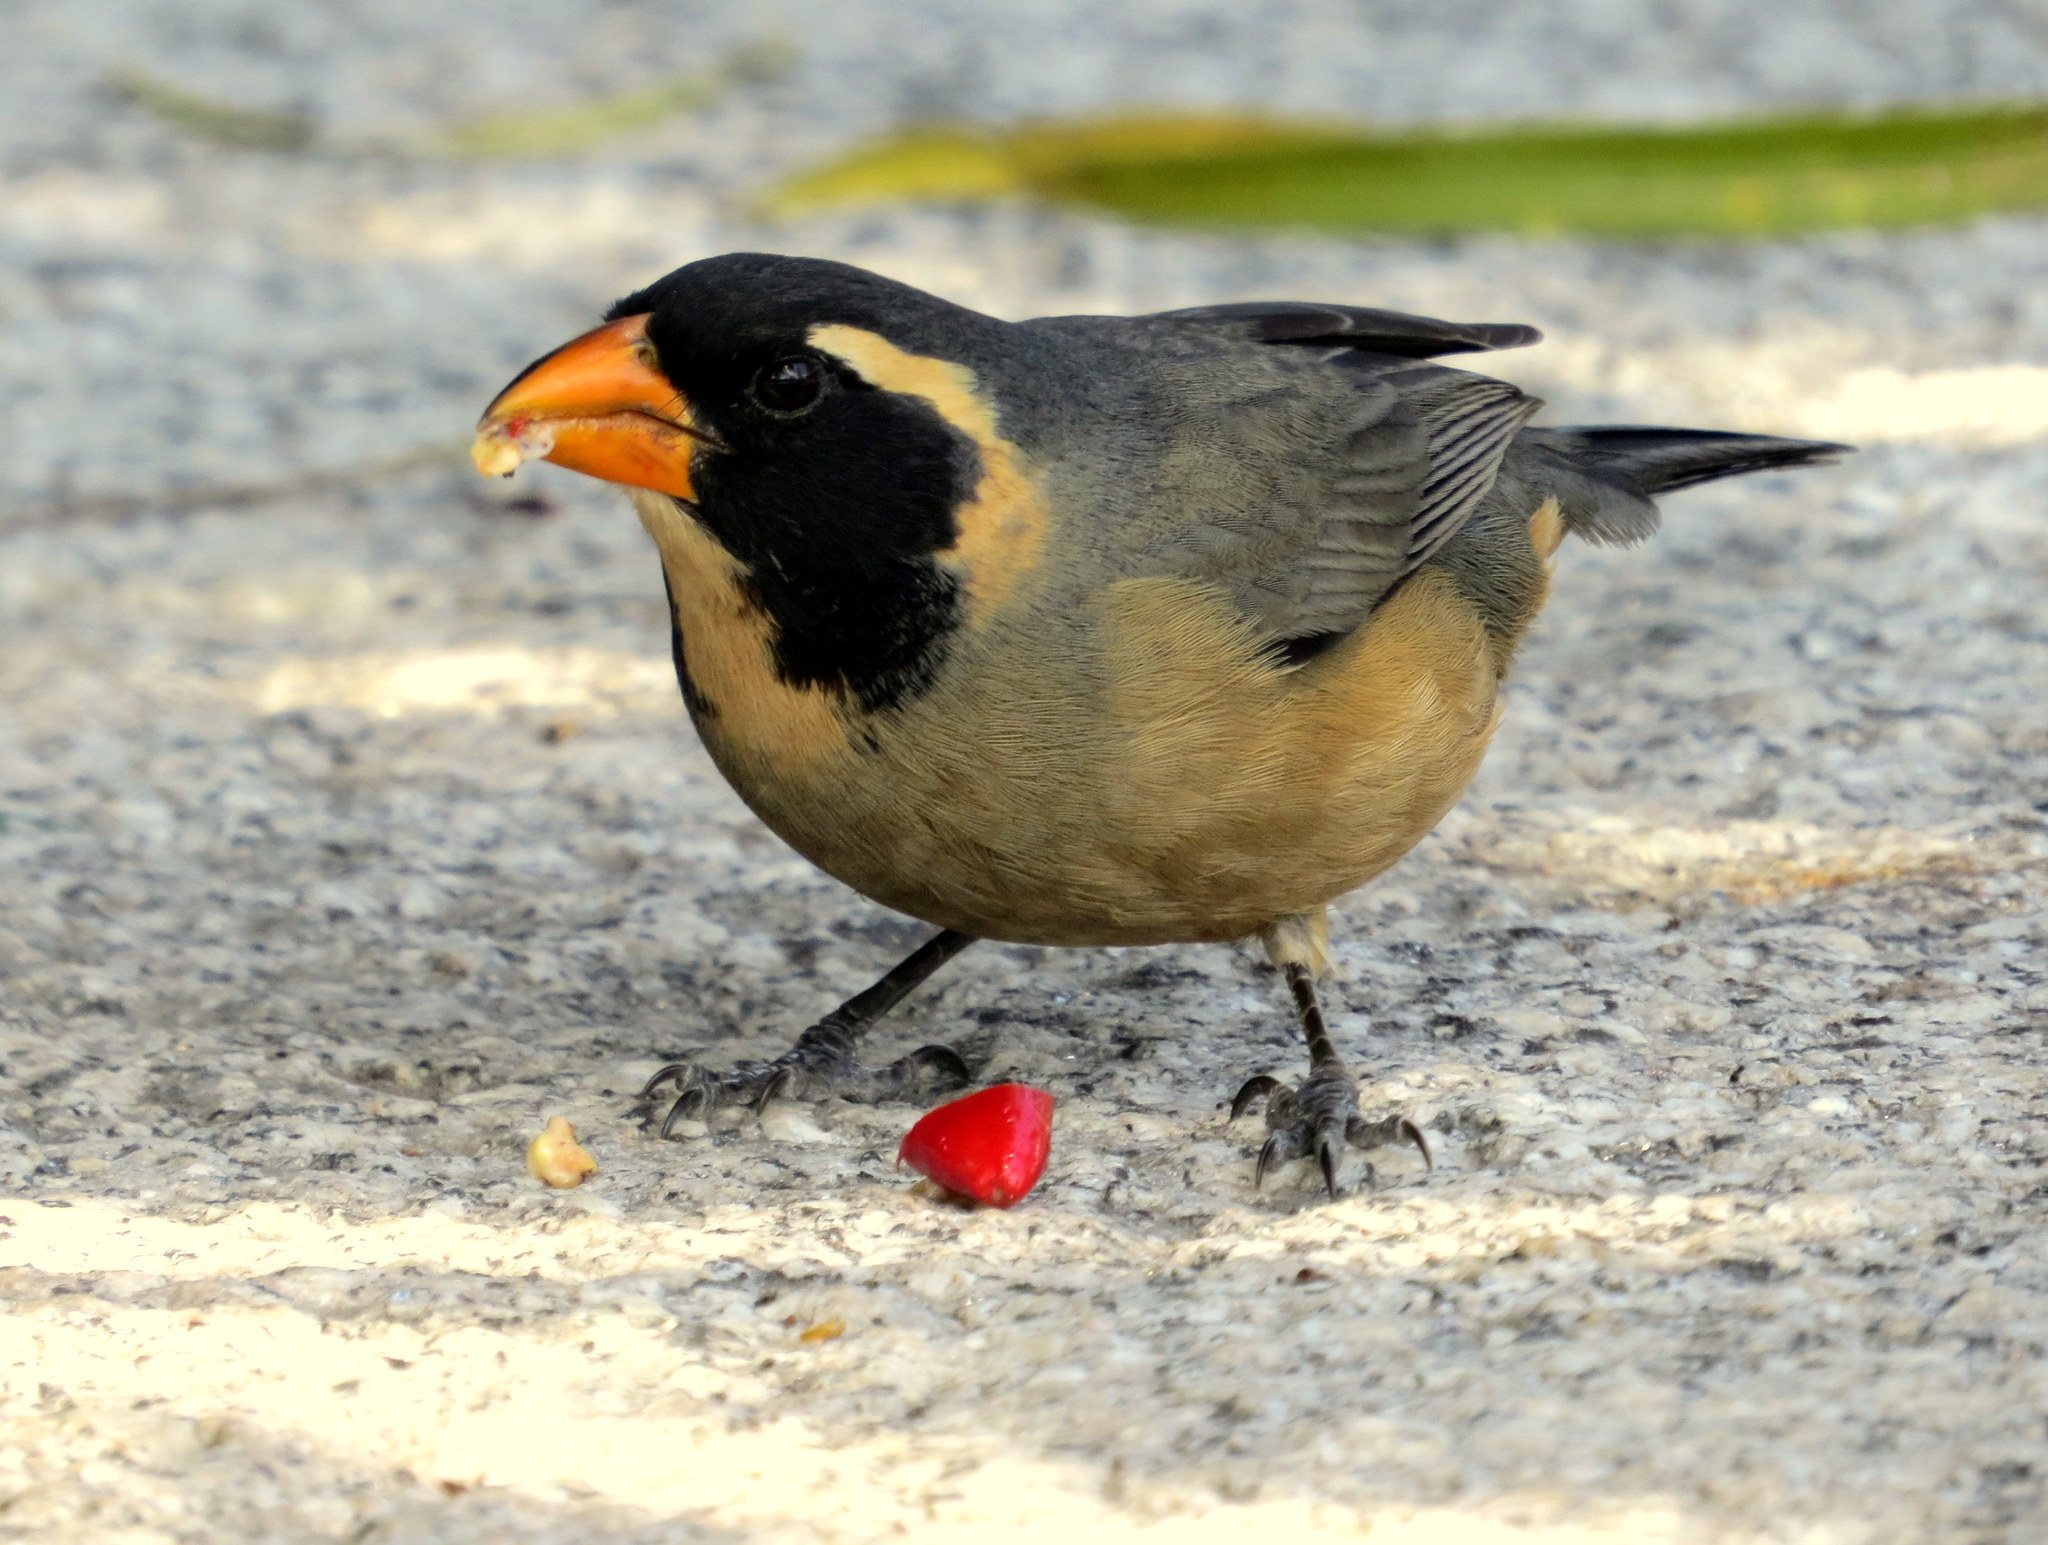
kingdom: Animalia
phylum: Chordata
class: Aves
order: Passeriformes
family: Thraupidae
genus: Saltator
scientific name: Saltator aurantiirostris
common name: Golden-billed saltator
